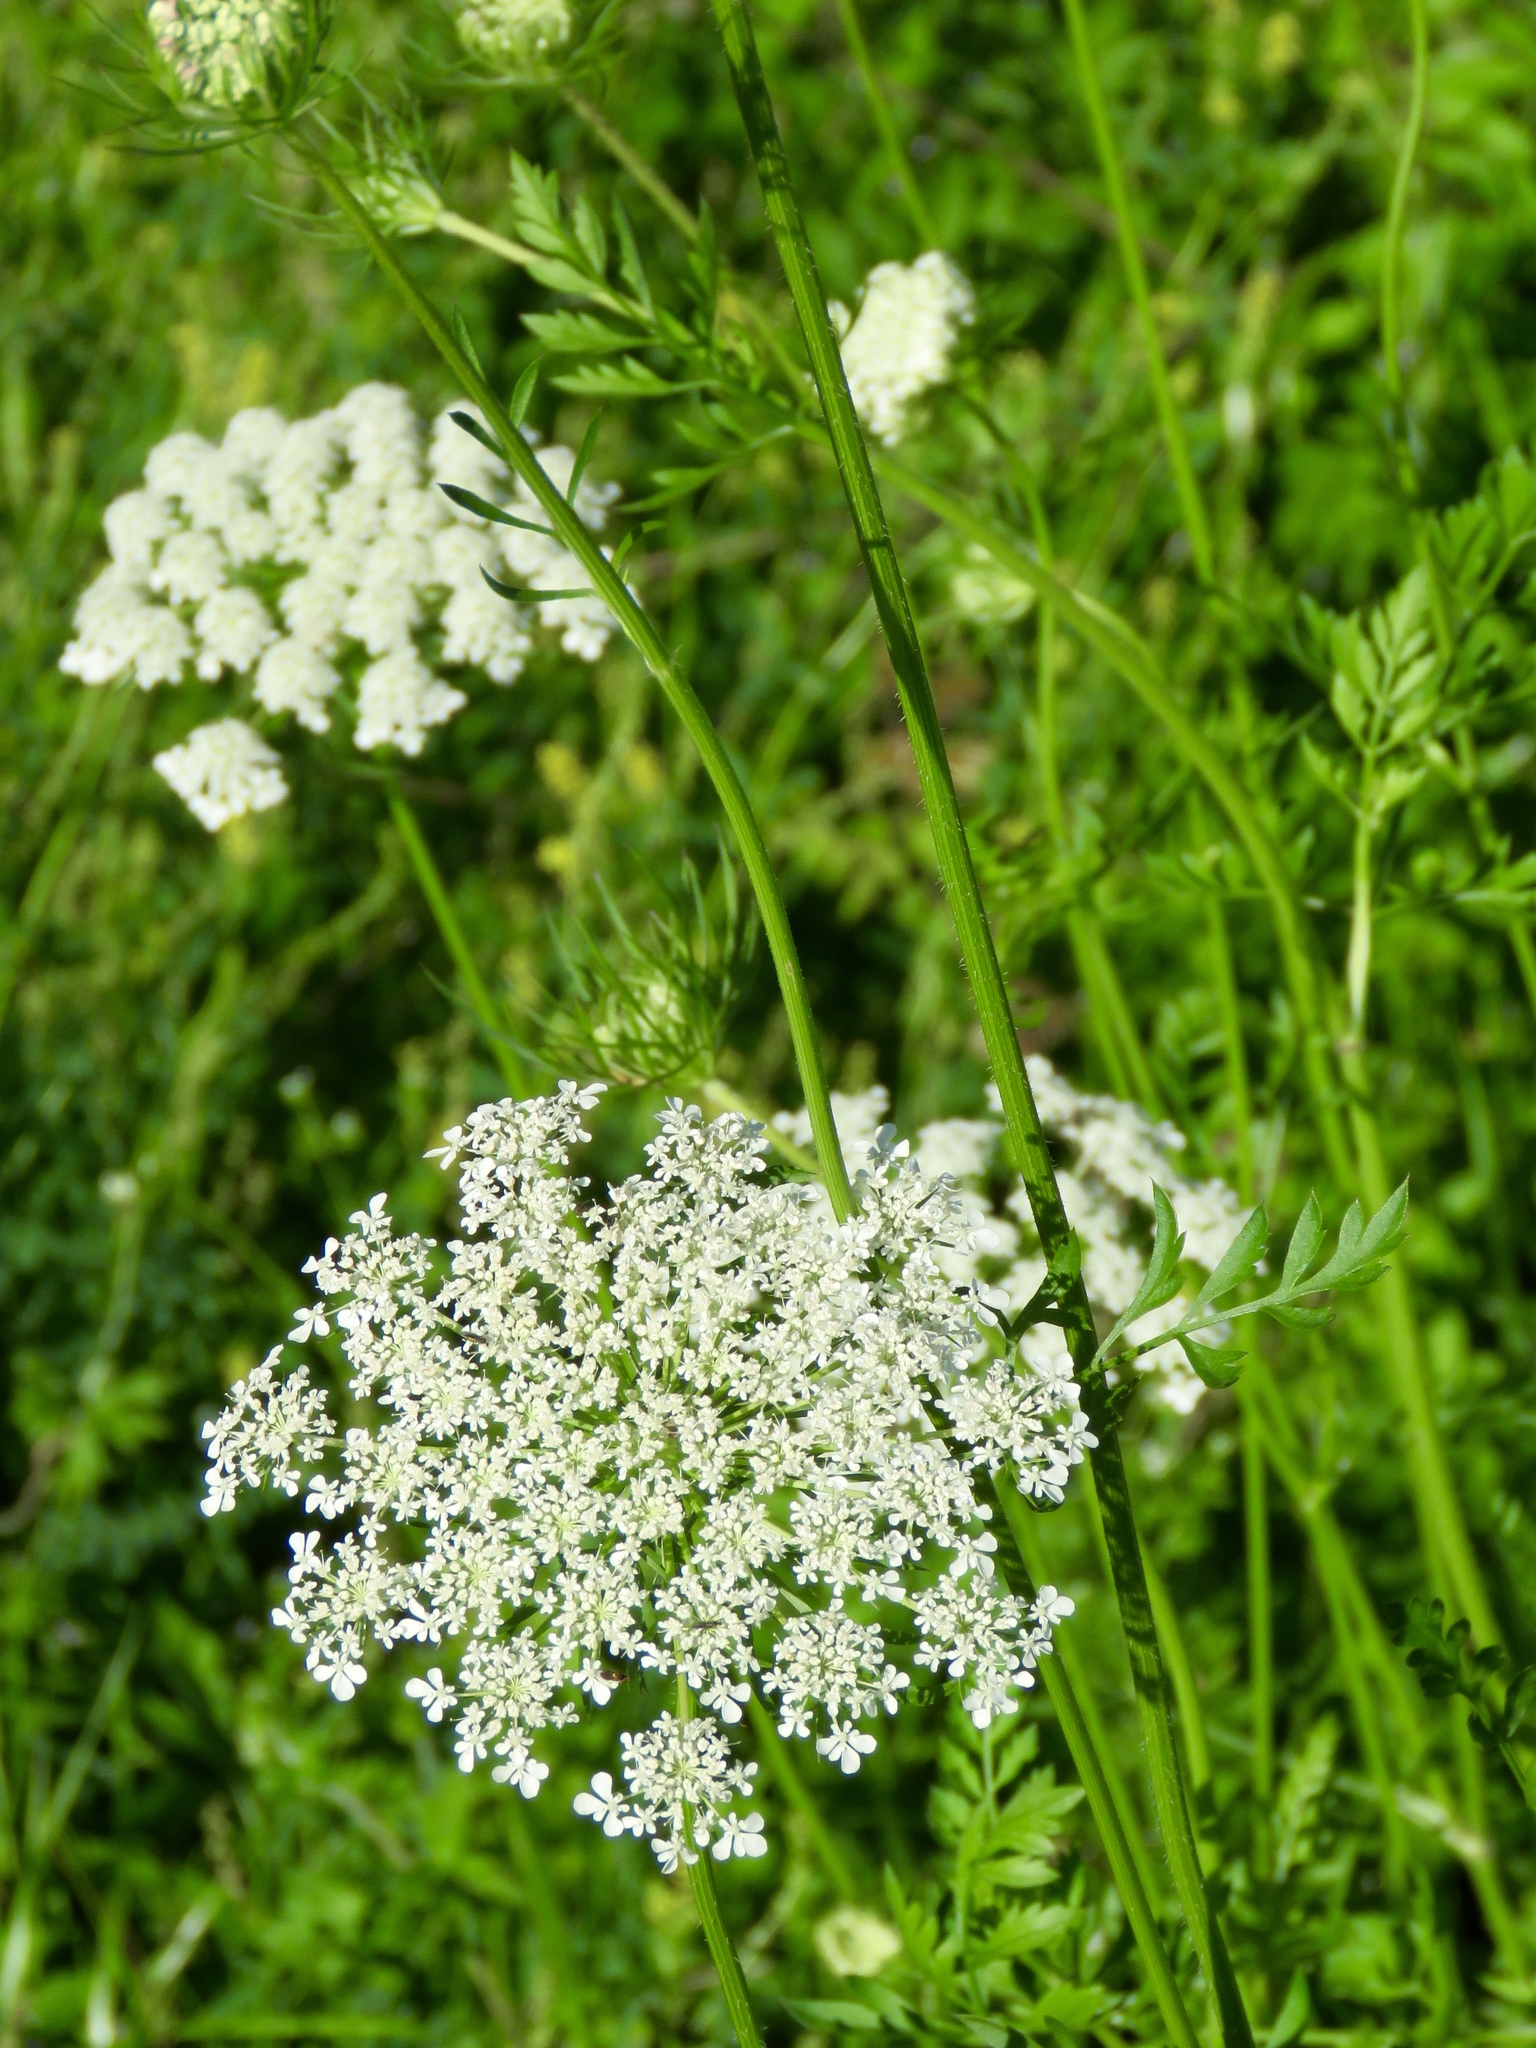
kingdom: Plantae
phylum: Tracheophyta
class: Magnoliopsida
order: Apiales
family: Apiaceae
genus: Daucus
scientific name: Daucus carota
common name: Wild carrot
